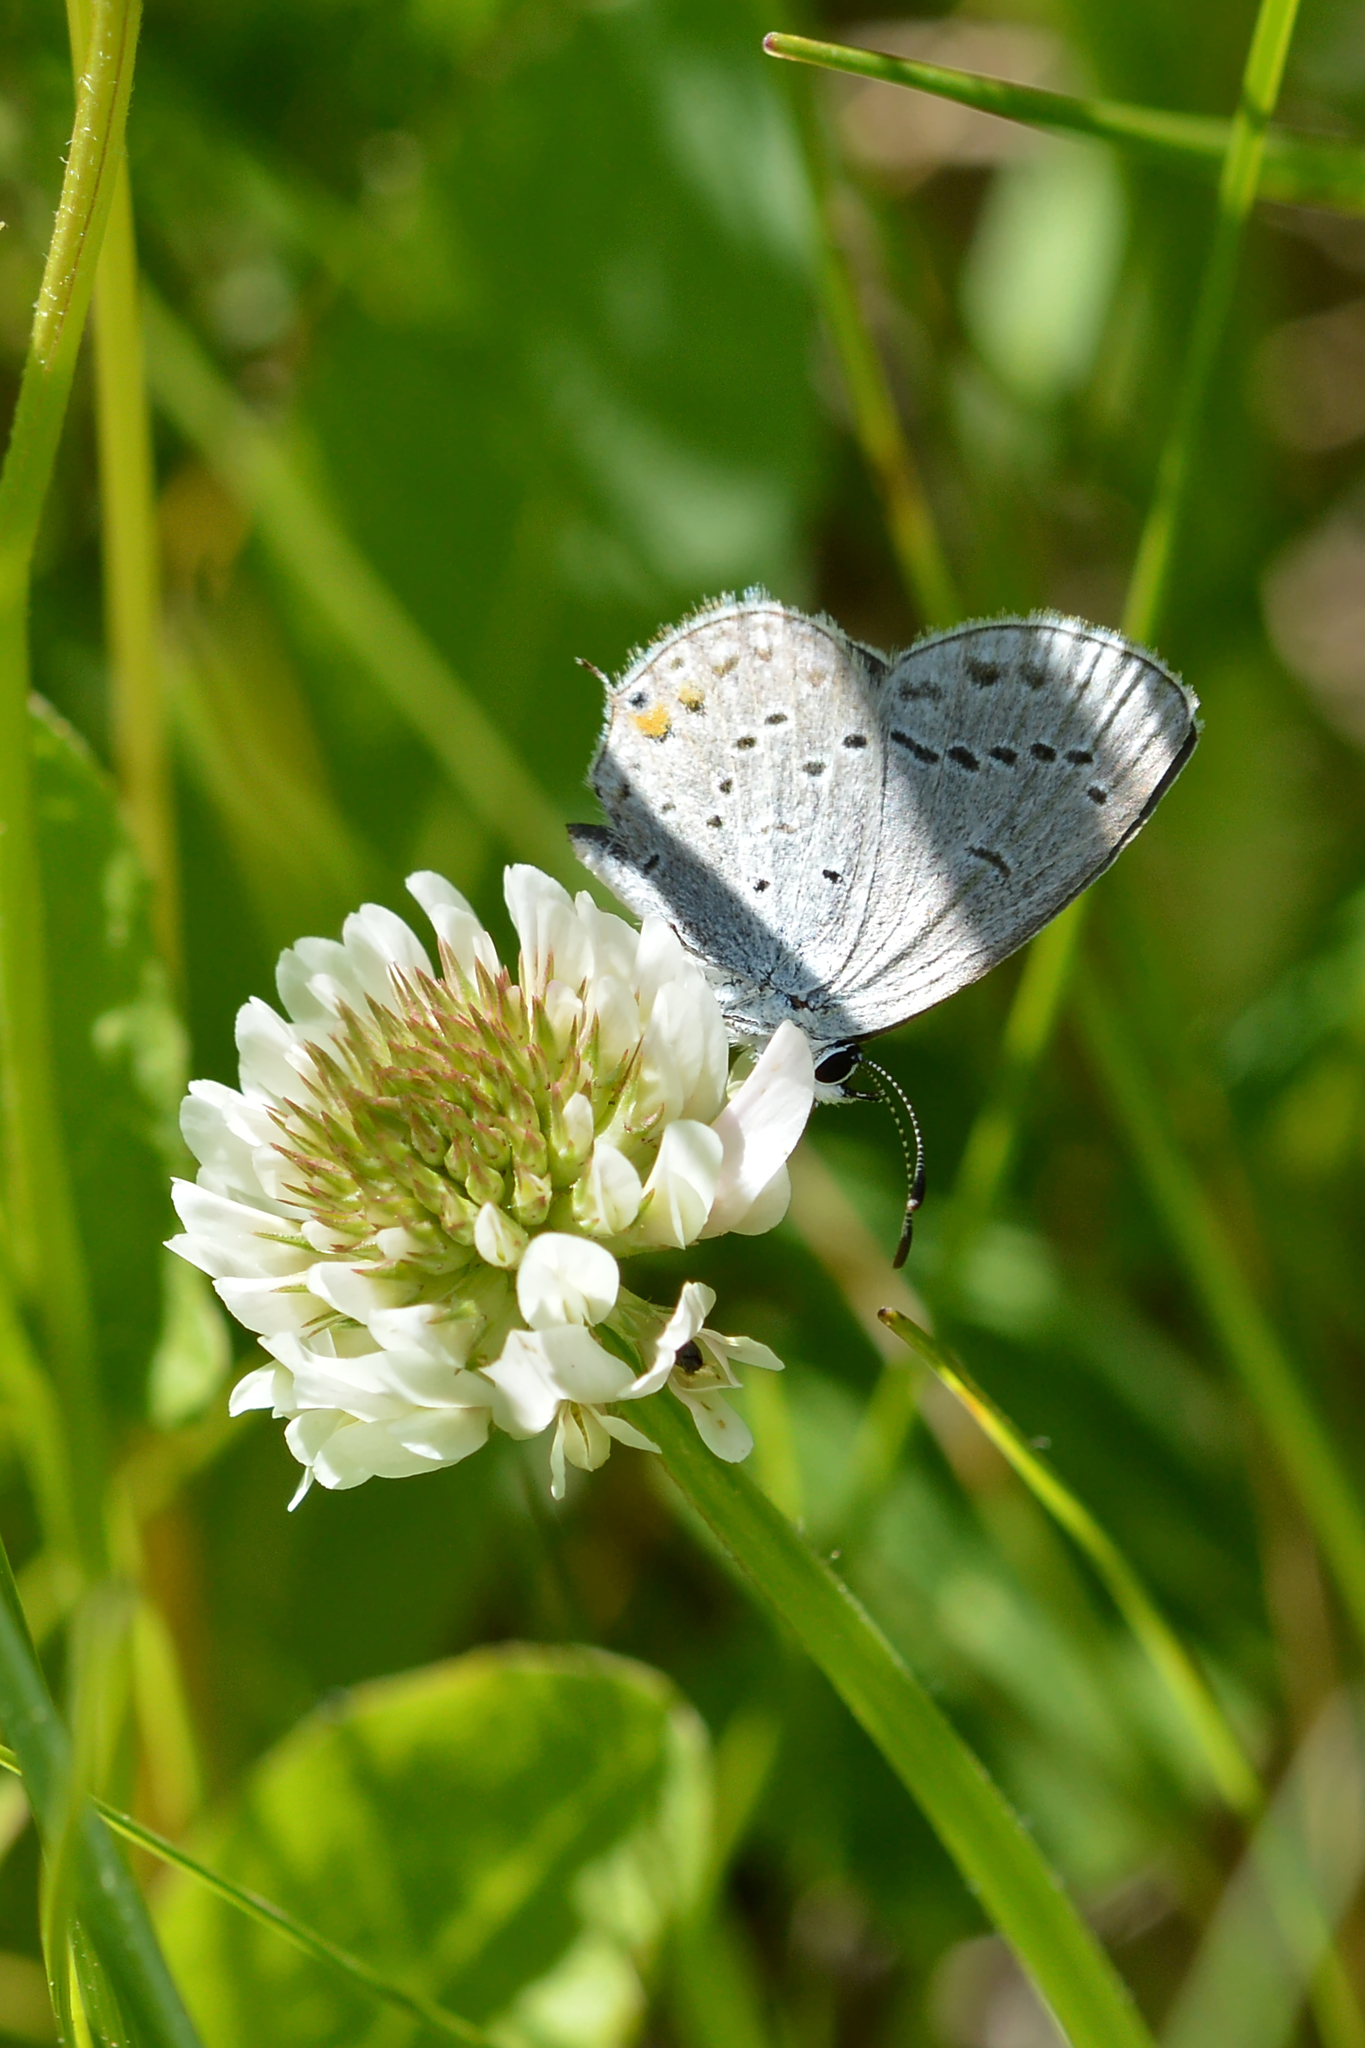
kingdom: Animalia
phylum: Arthropoda
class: Insecta
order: Lepidoptera
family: Lycaenidae
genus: Elkalyce
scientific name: Elkalyce comyntas
